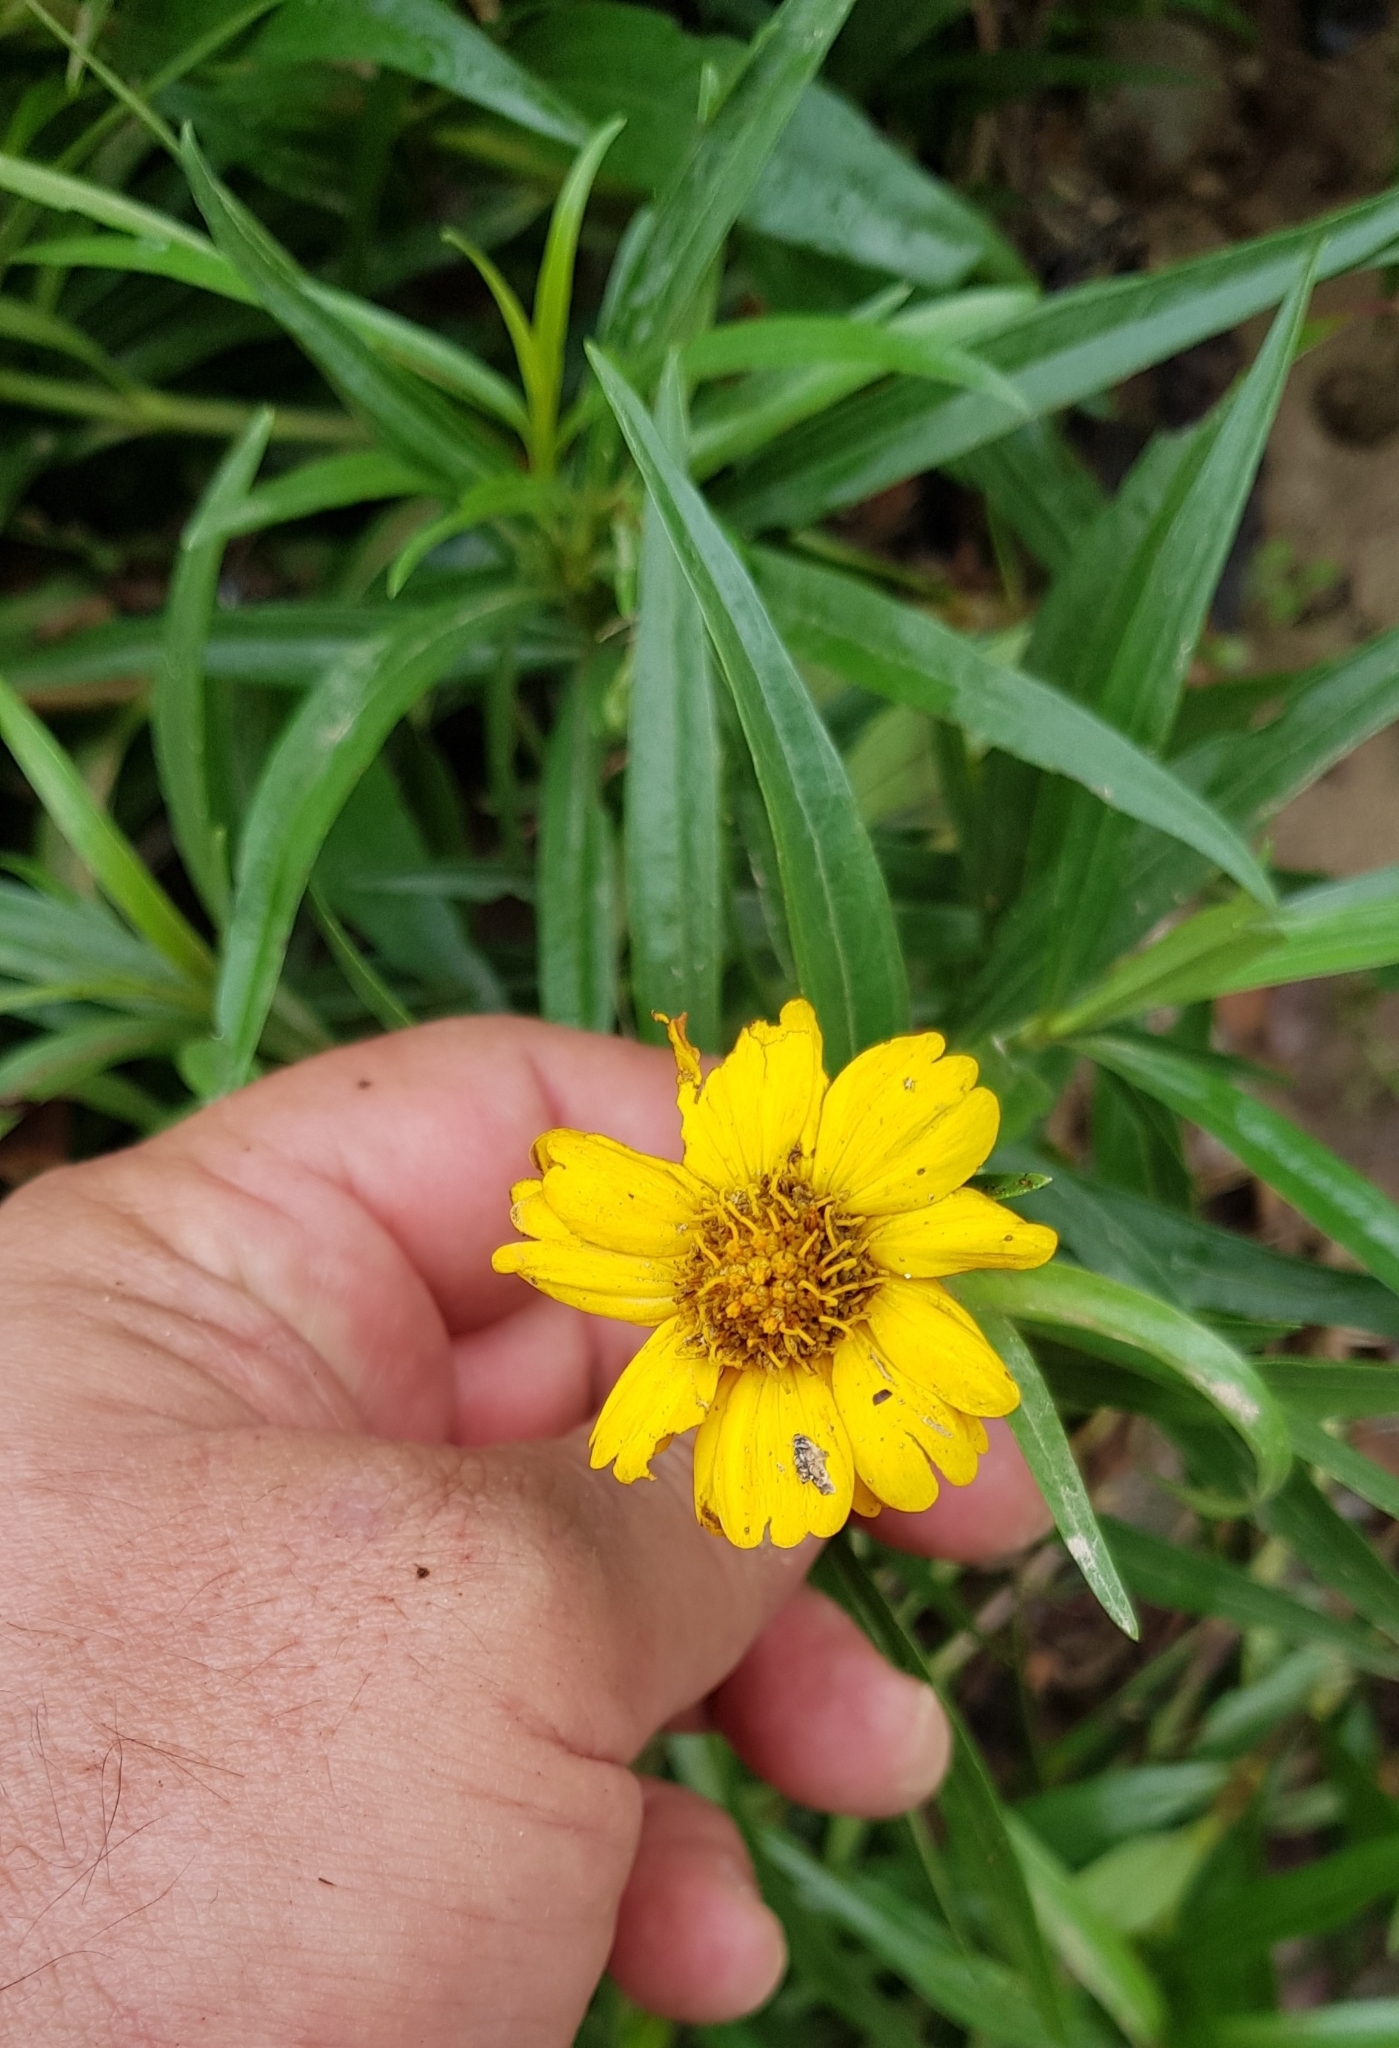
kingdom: Plantae
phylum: Tracheophyta
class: Magnoliopsida
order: Asterales
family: Asteraceae
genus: Chaetymenia
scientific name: Chaetymenia peduncularis
